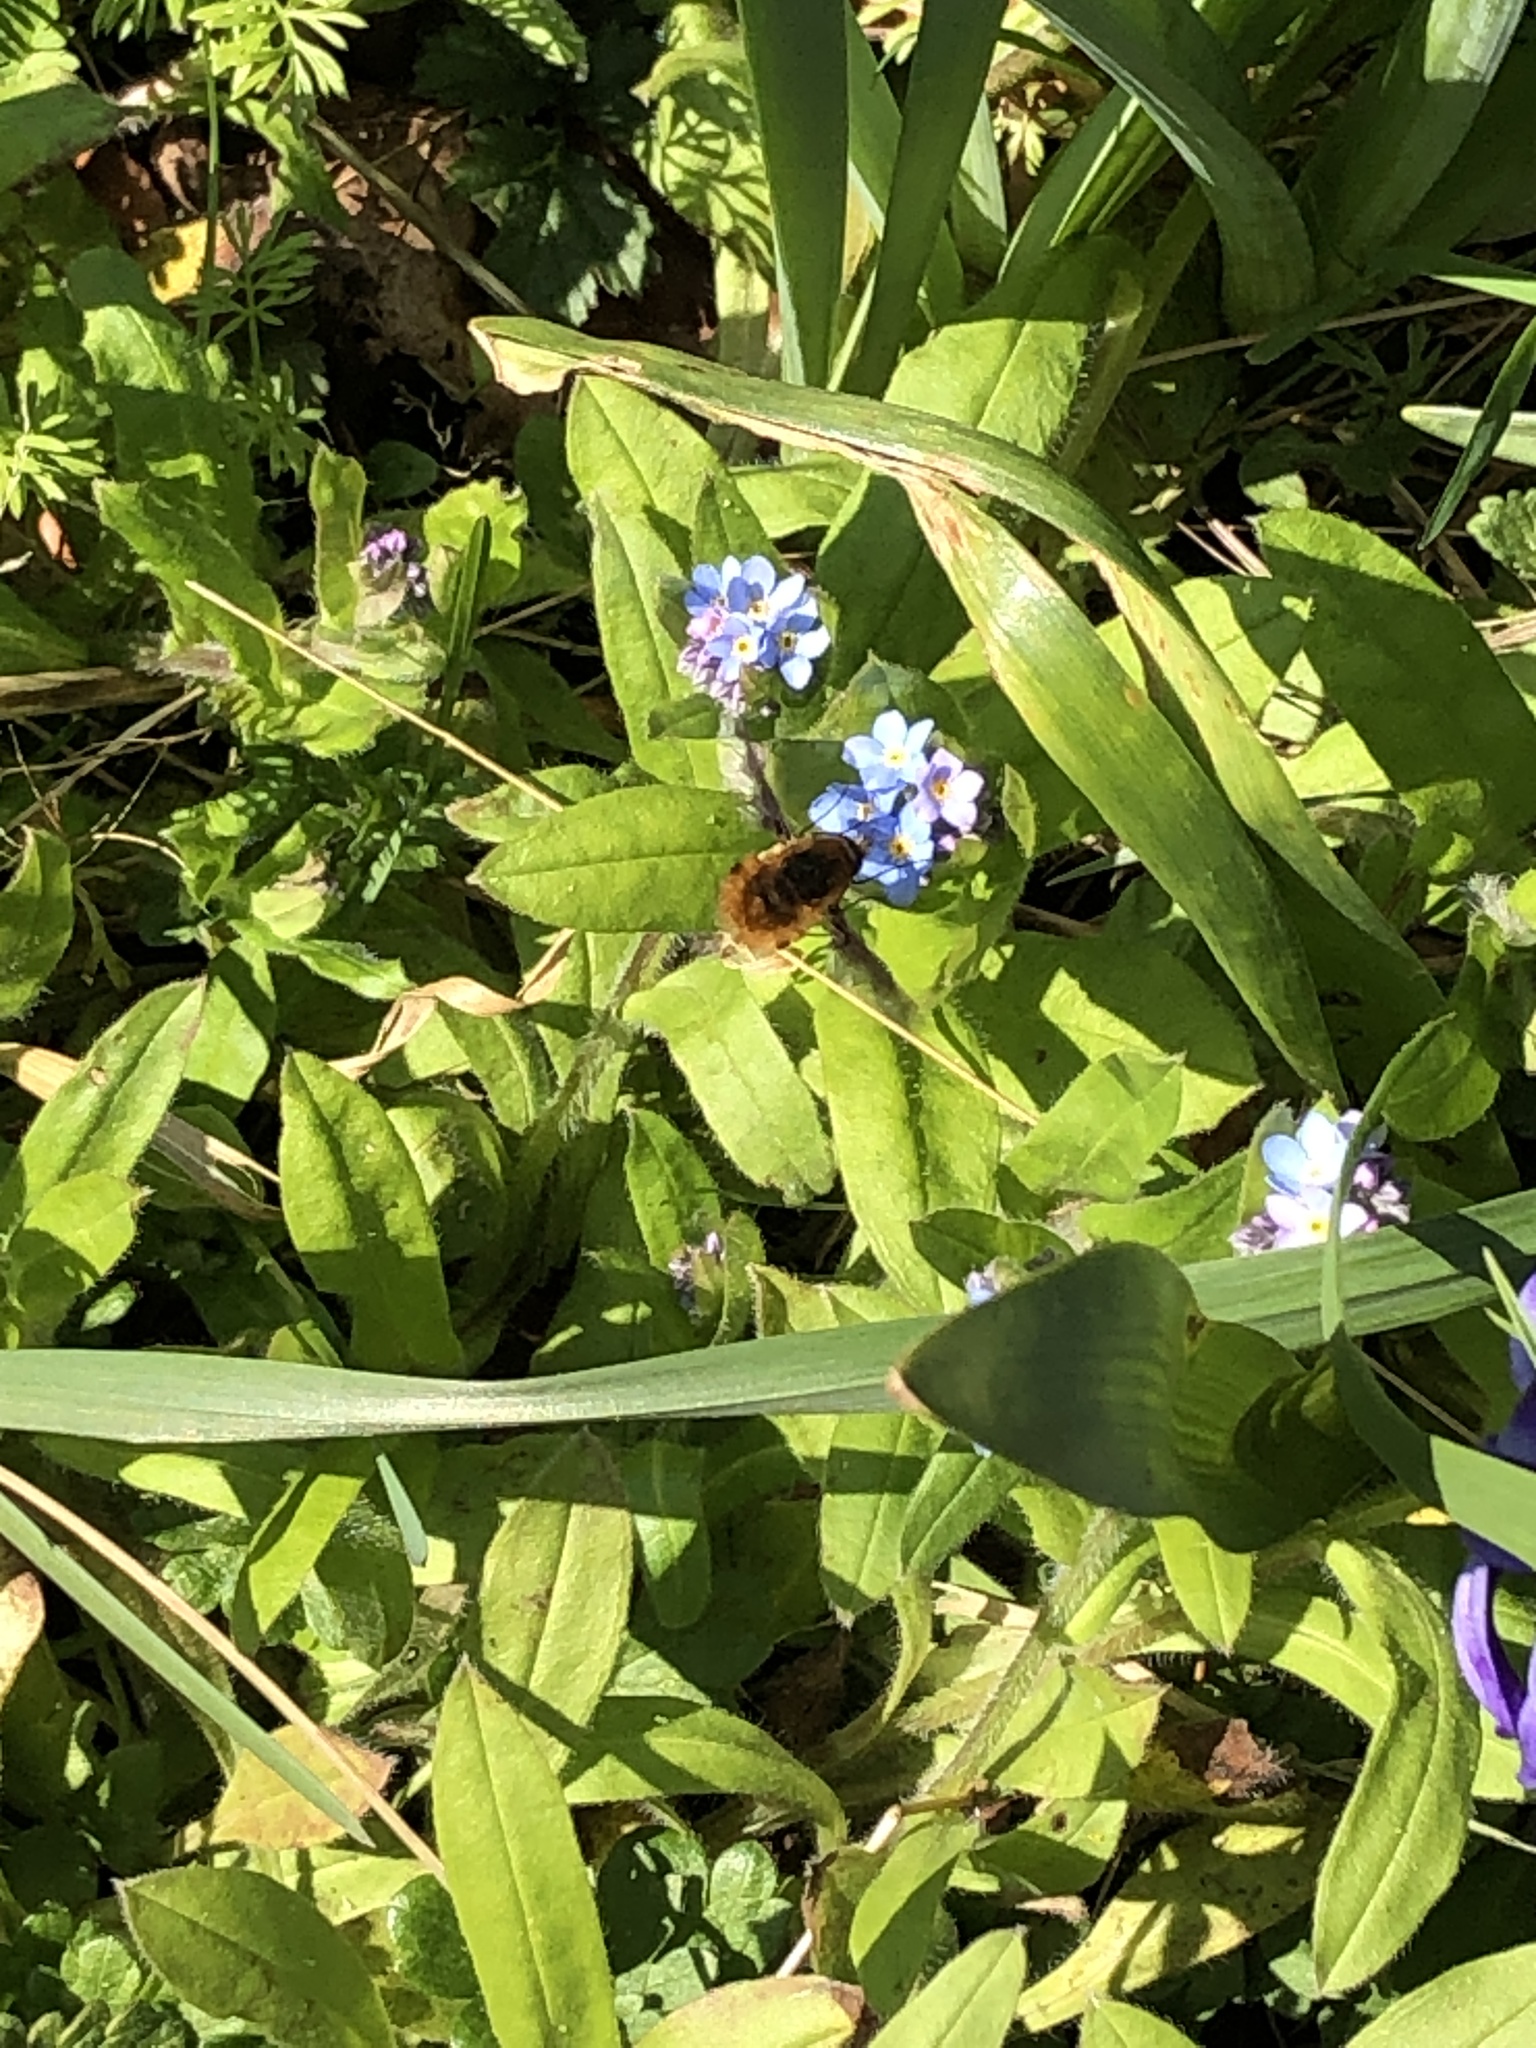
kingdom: Animalia
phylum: Arthropoda
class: Insecta
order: Diptera
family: Bombyliidae
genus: Bombylius
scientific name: Bombylius major
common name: Bee fly
